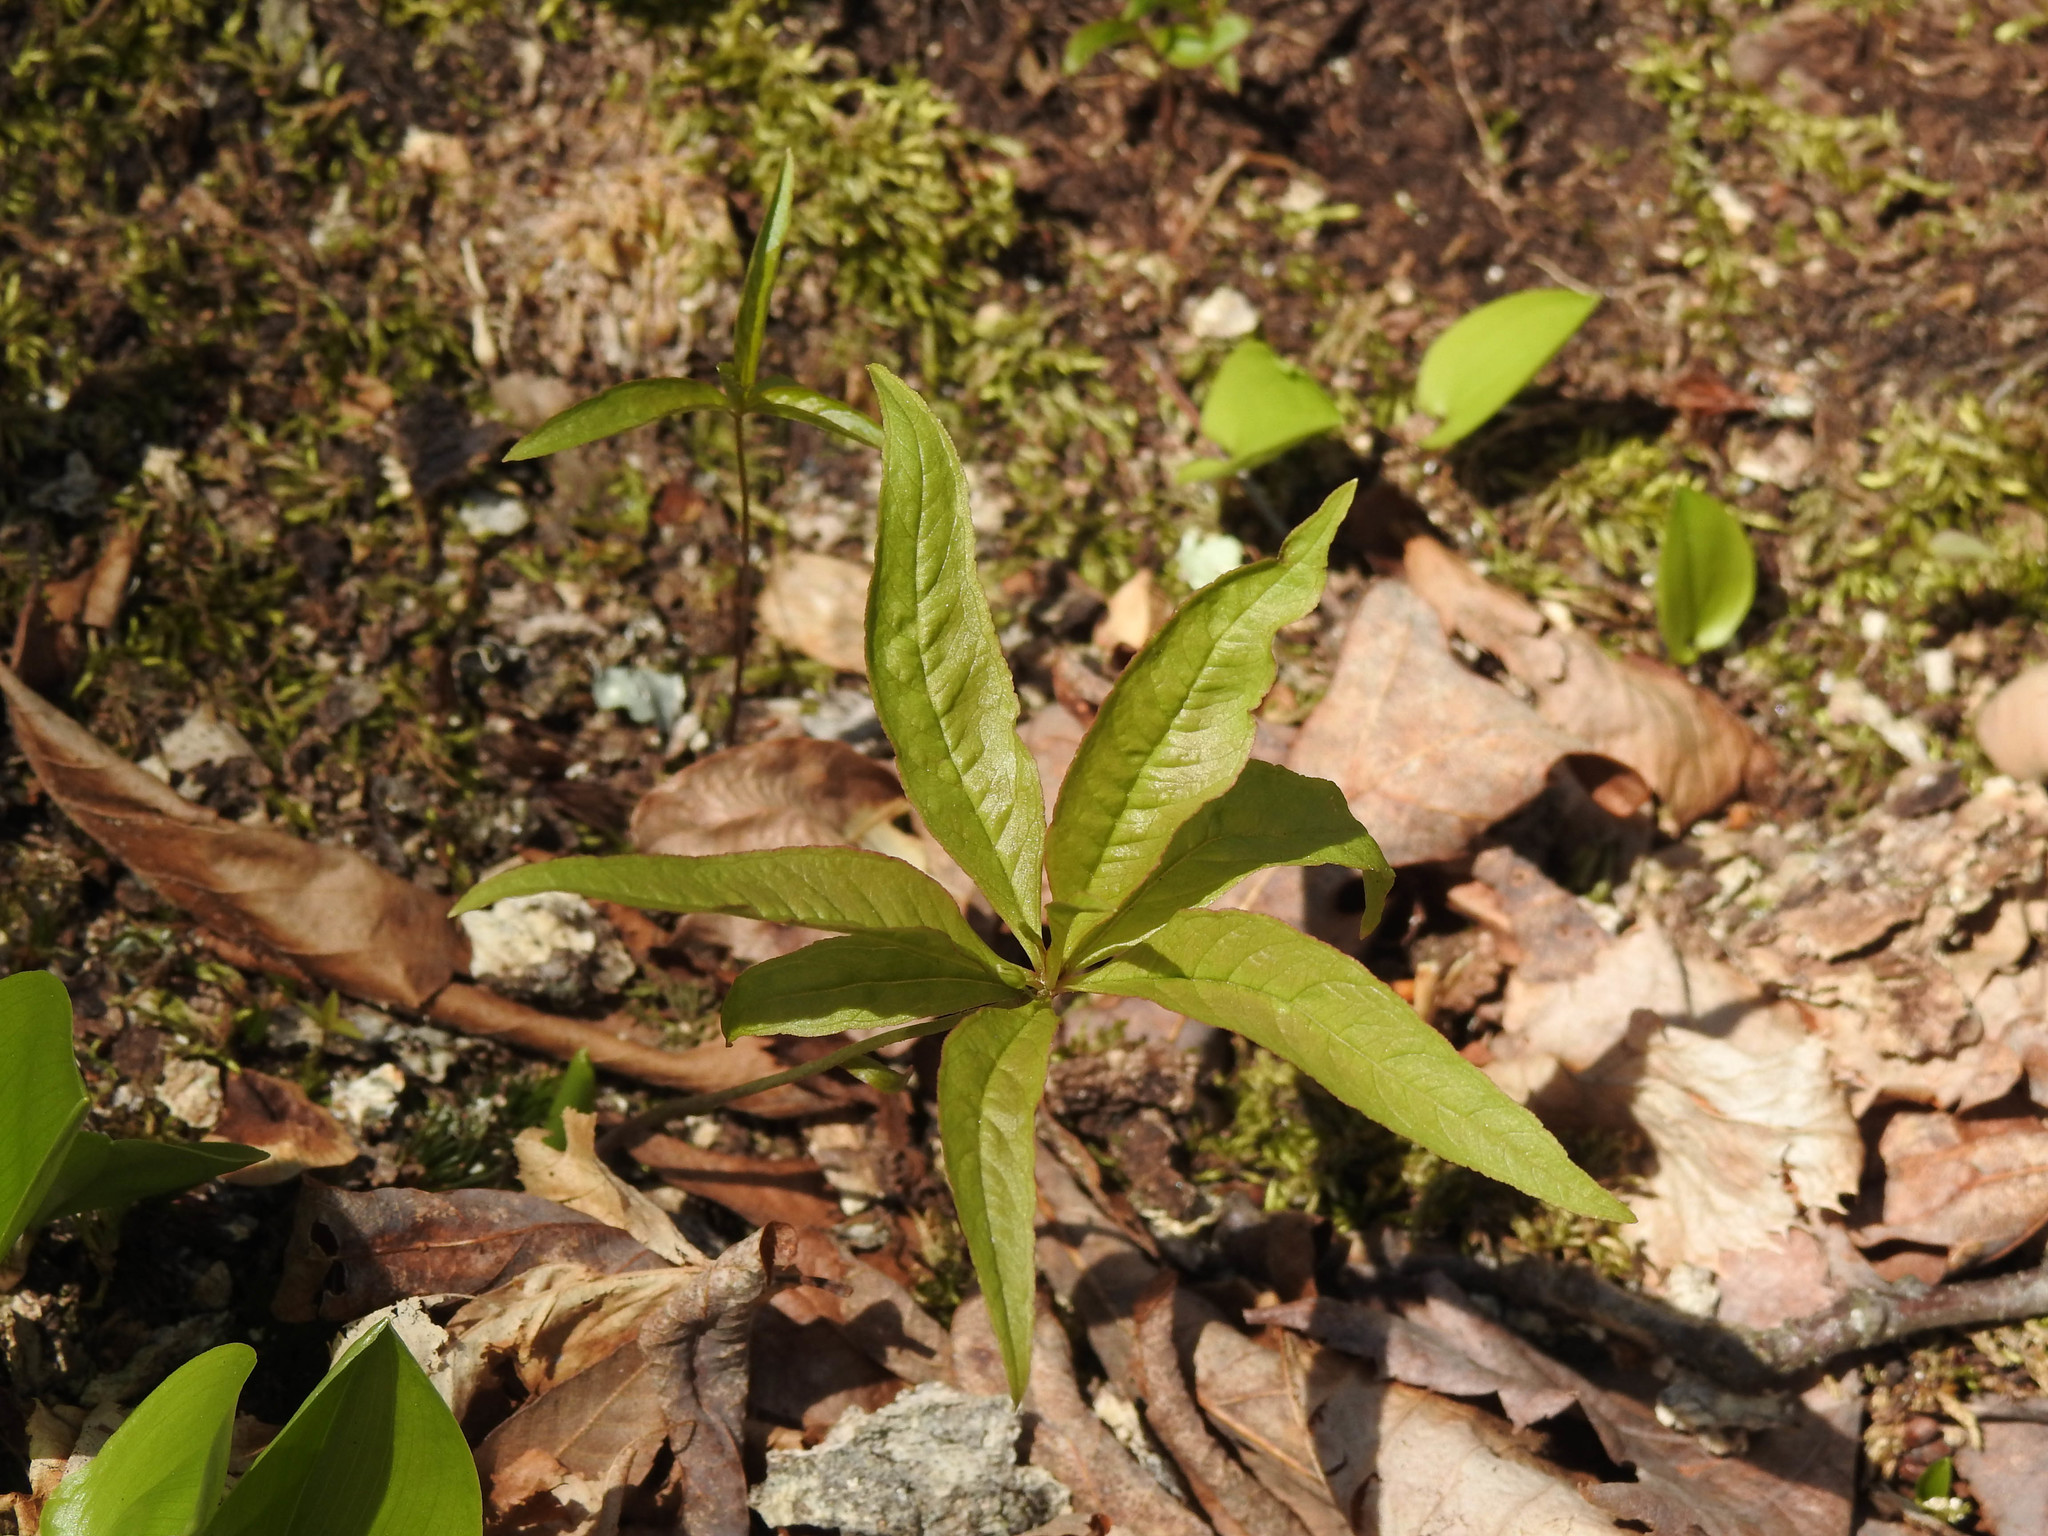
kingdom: Plantae
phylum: Tracheophyta
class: Magnoliopsida
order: Ericales
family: Primulaceae
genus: Lysimachia
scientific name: Lysimachia borealis
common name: American starflower
